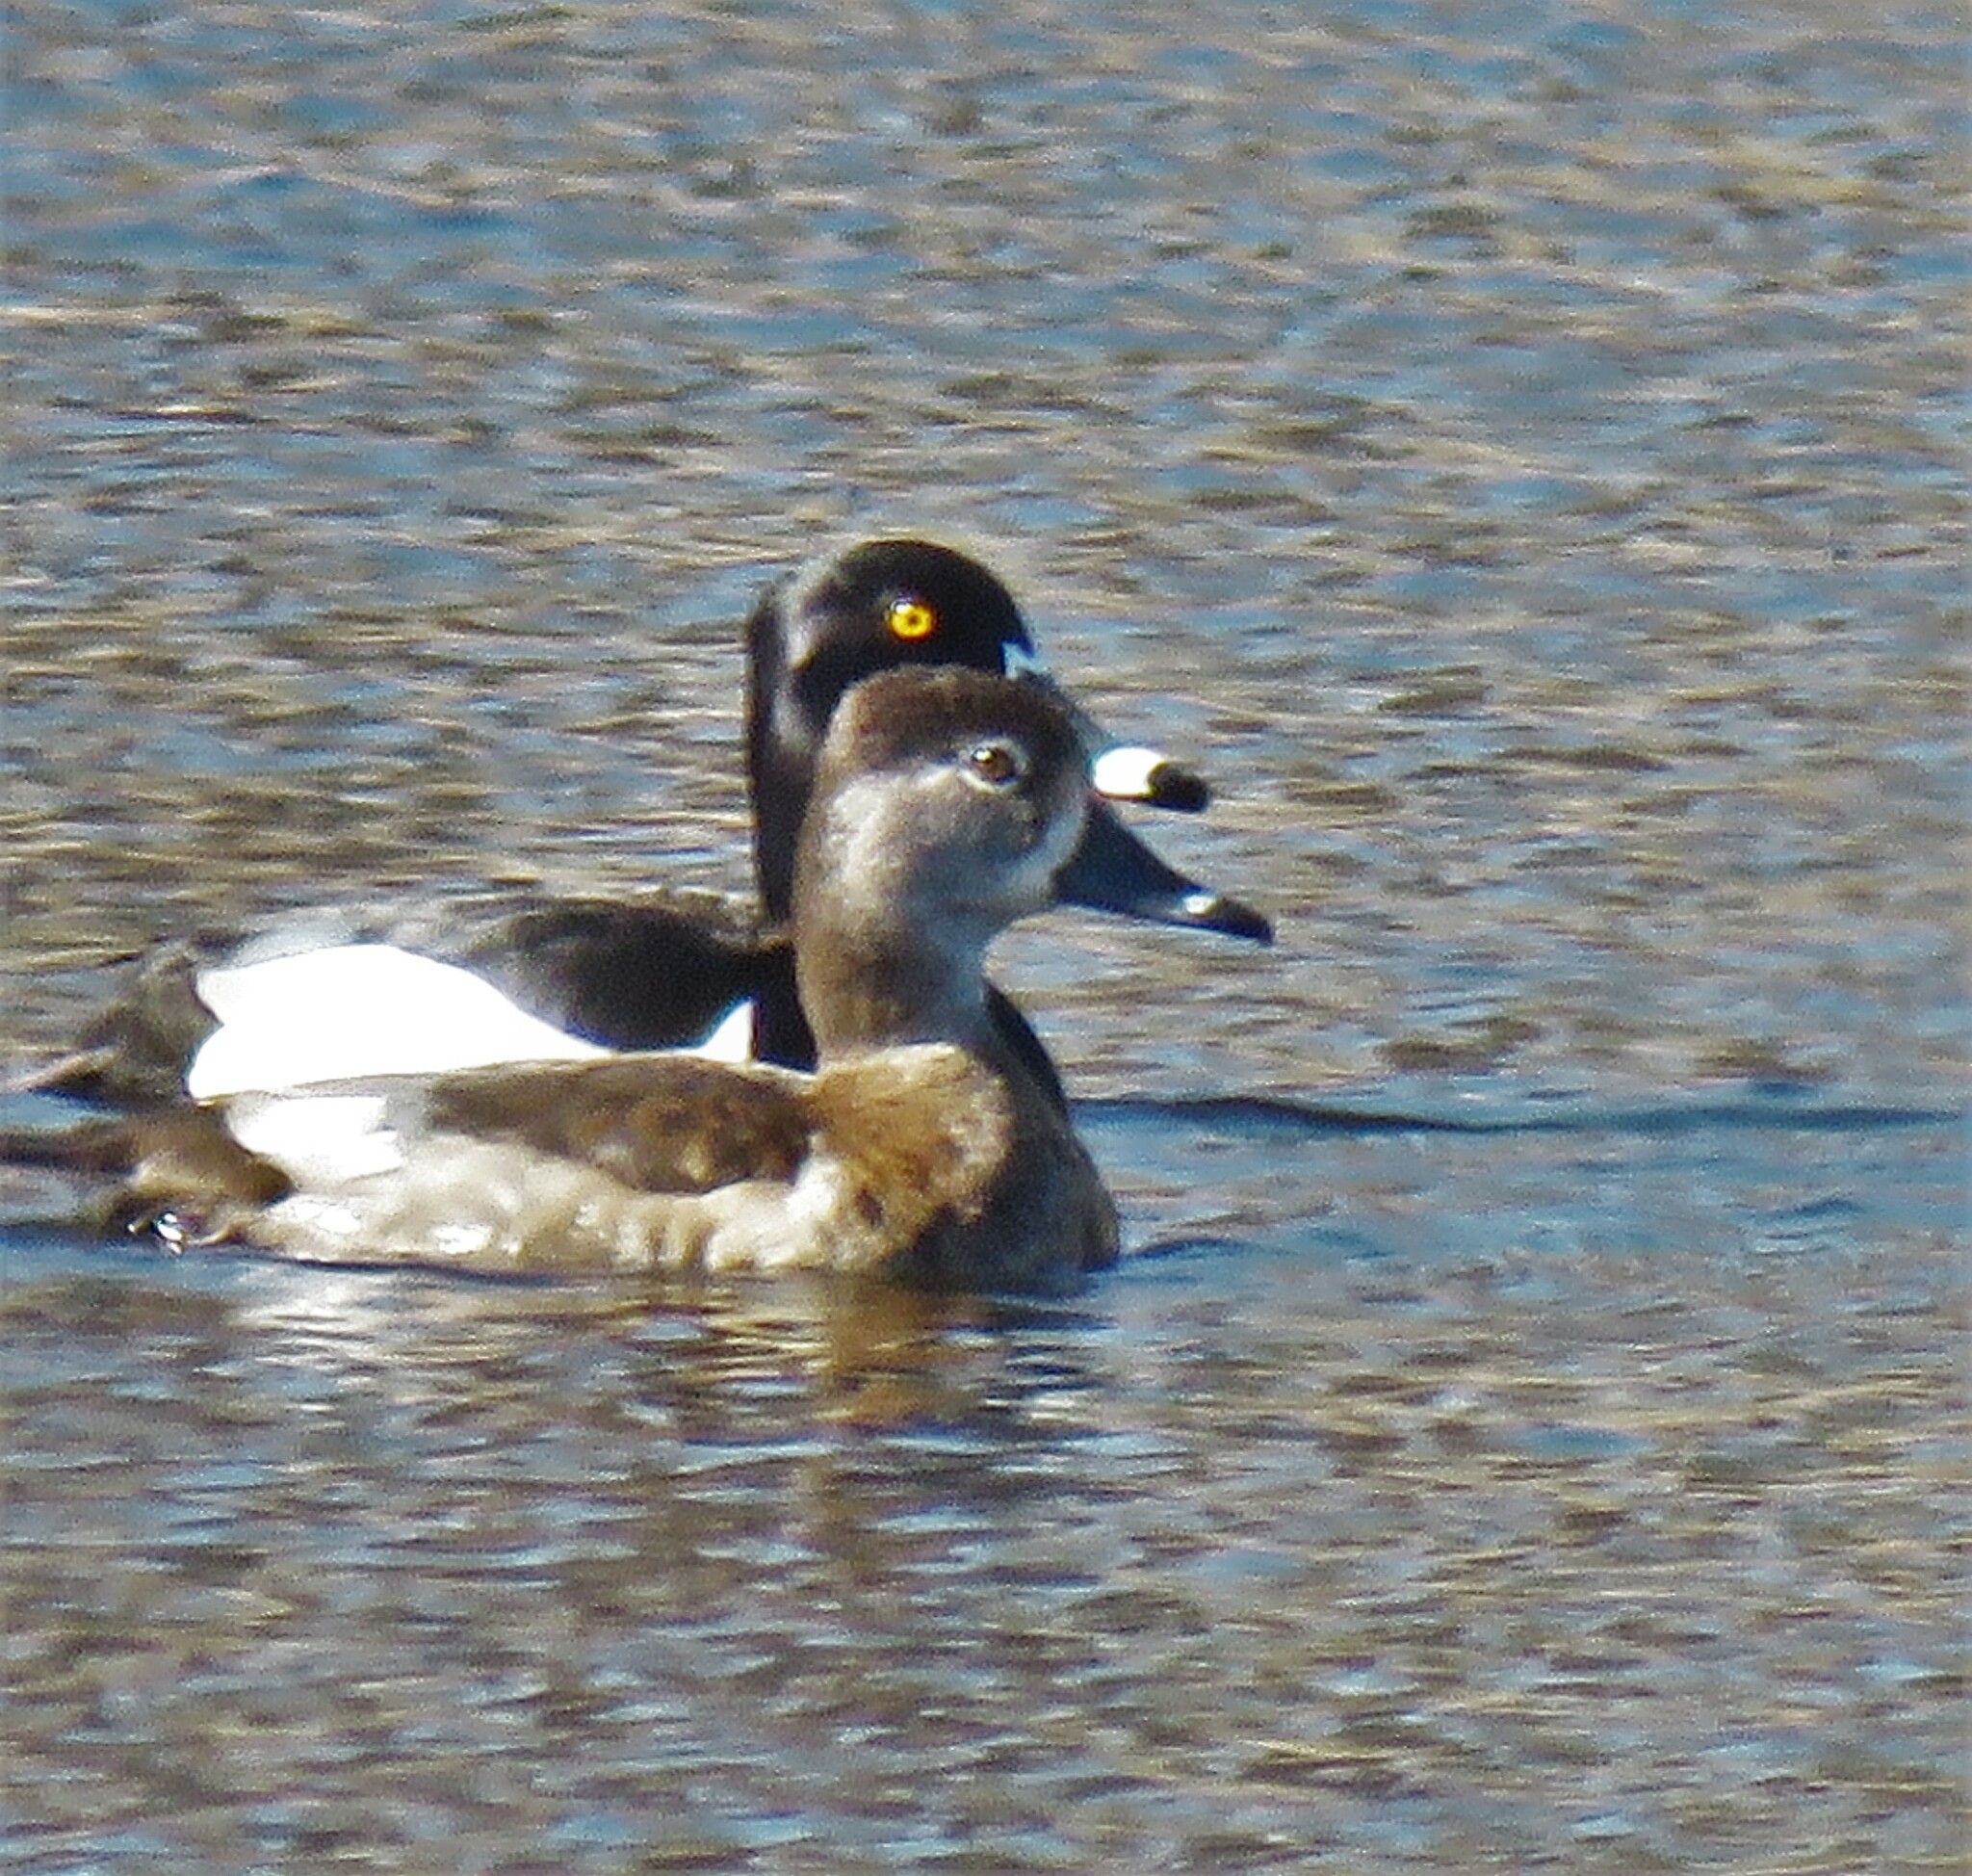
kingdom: Animalia
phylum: Chordata
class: Aves
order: Anseriformes
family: Anatidae
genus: Aythya
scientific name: Aythya collaris
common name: Ring-necked duck
